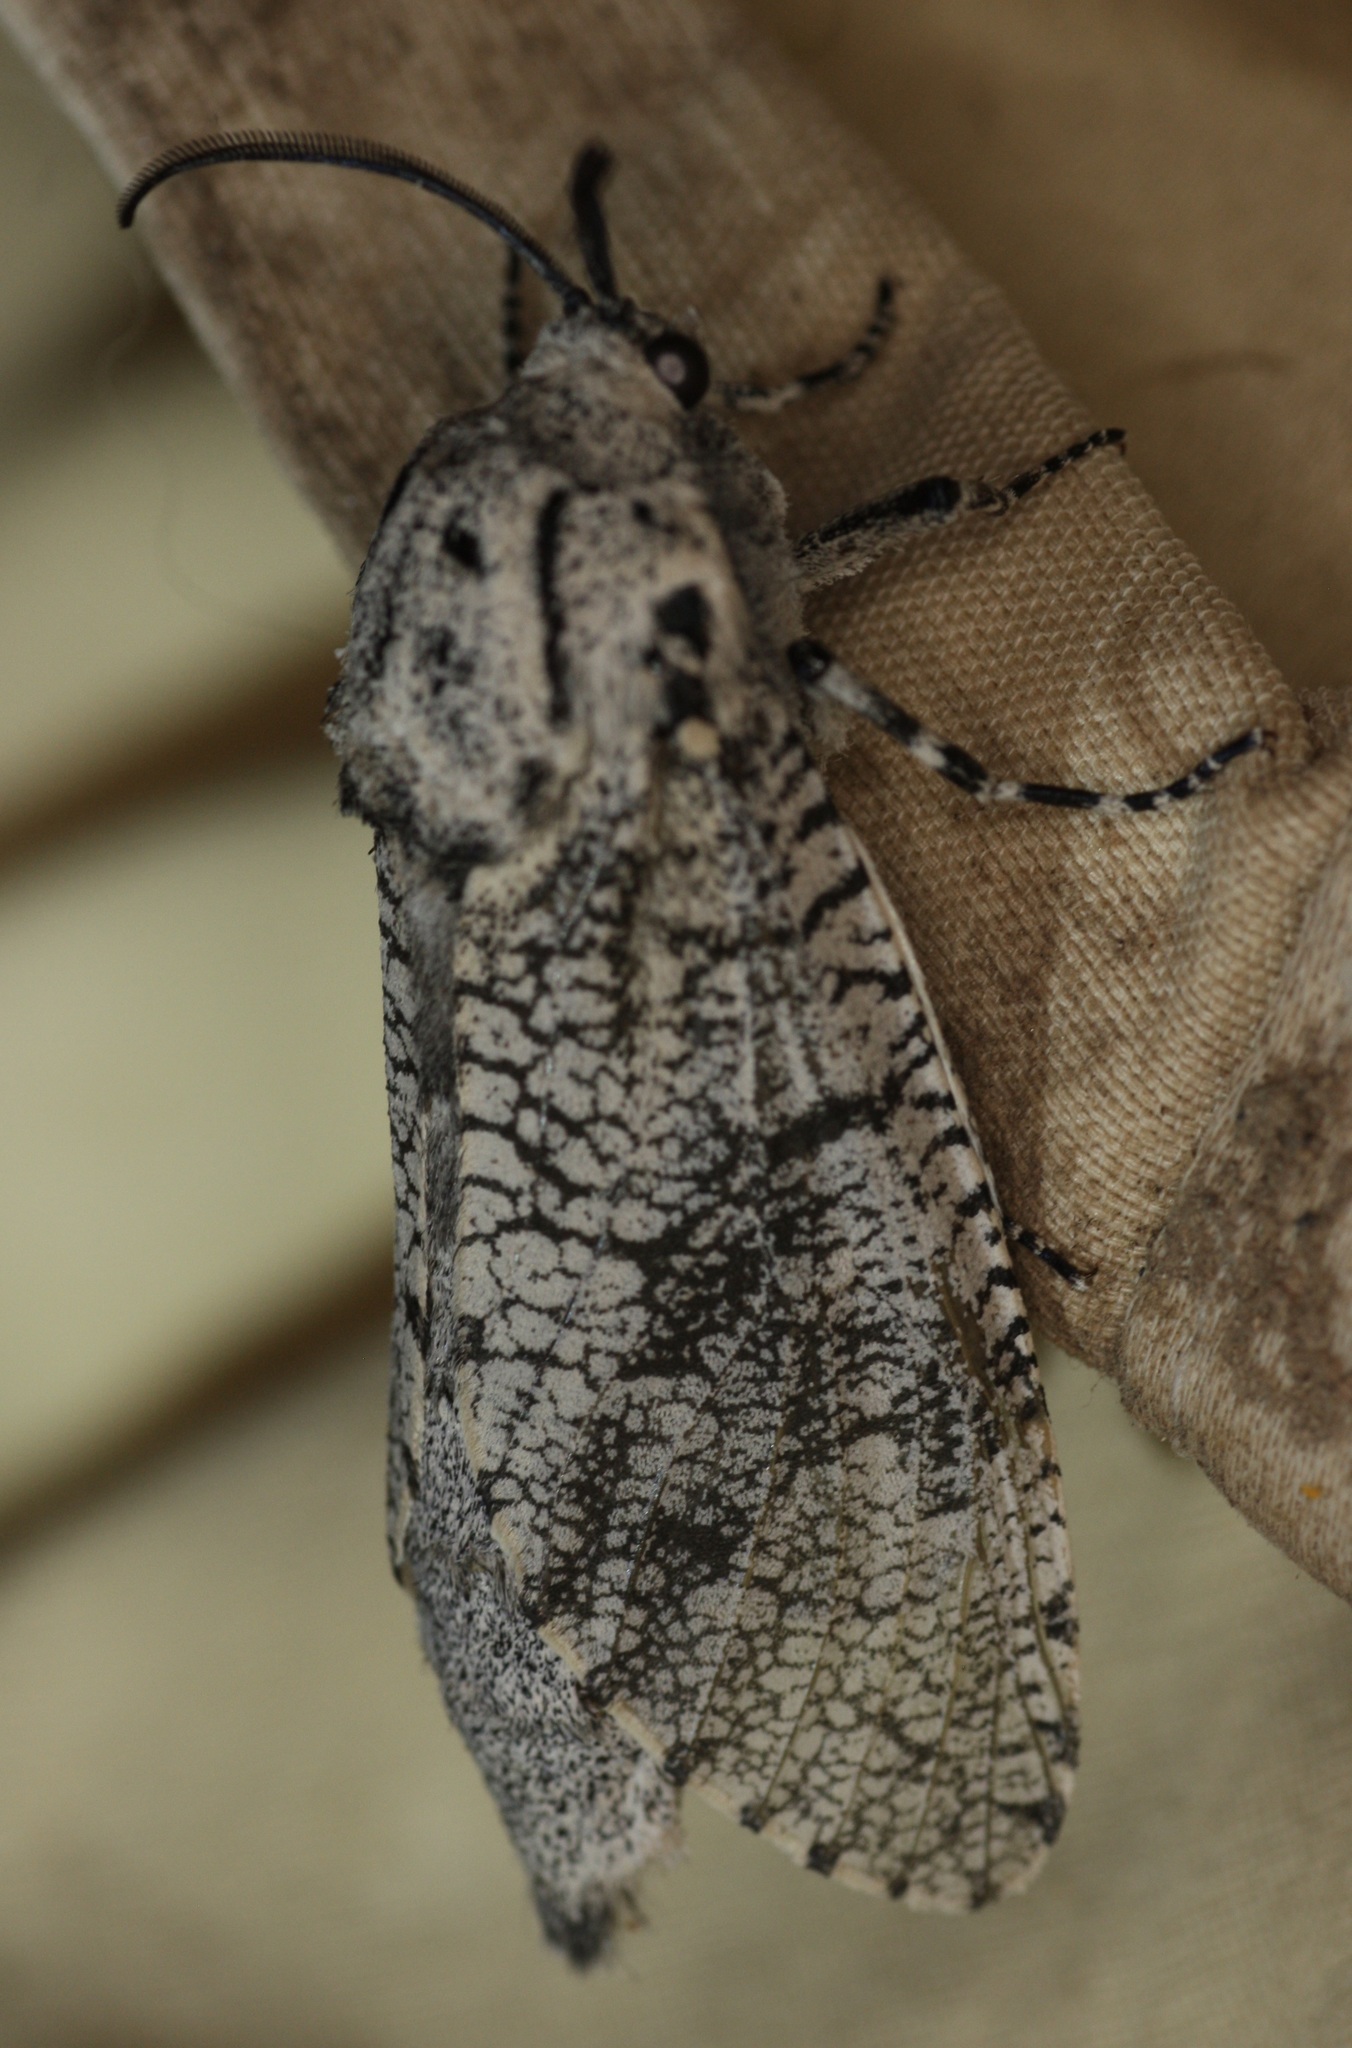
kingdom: Animalia
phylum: Arthropoda
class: Insecta
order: Lepidoptera
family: Cossidae
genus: Prionoxystus
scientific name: Prionoxystus robiniae
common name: Carpenterworm
